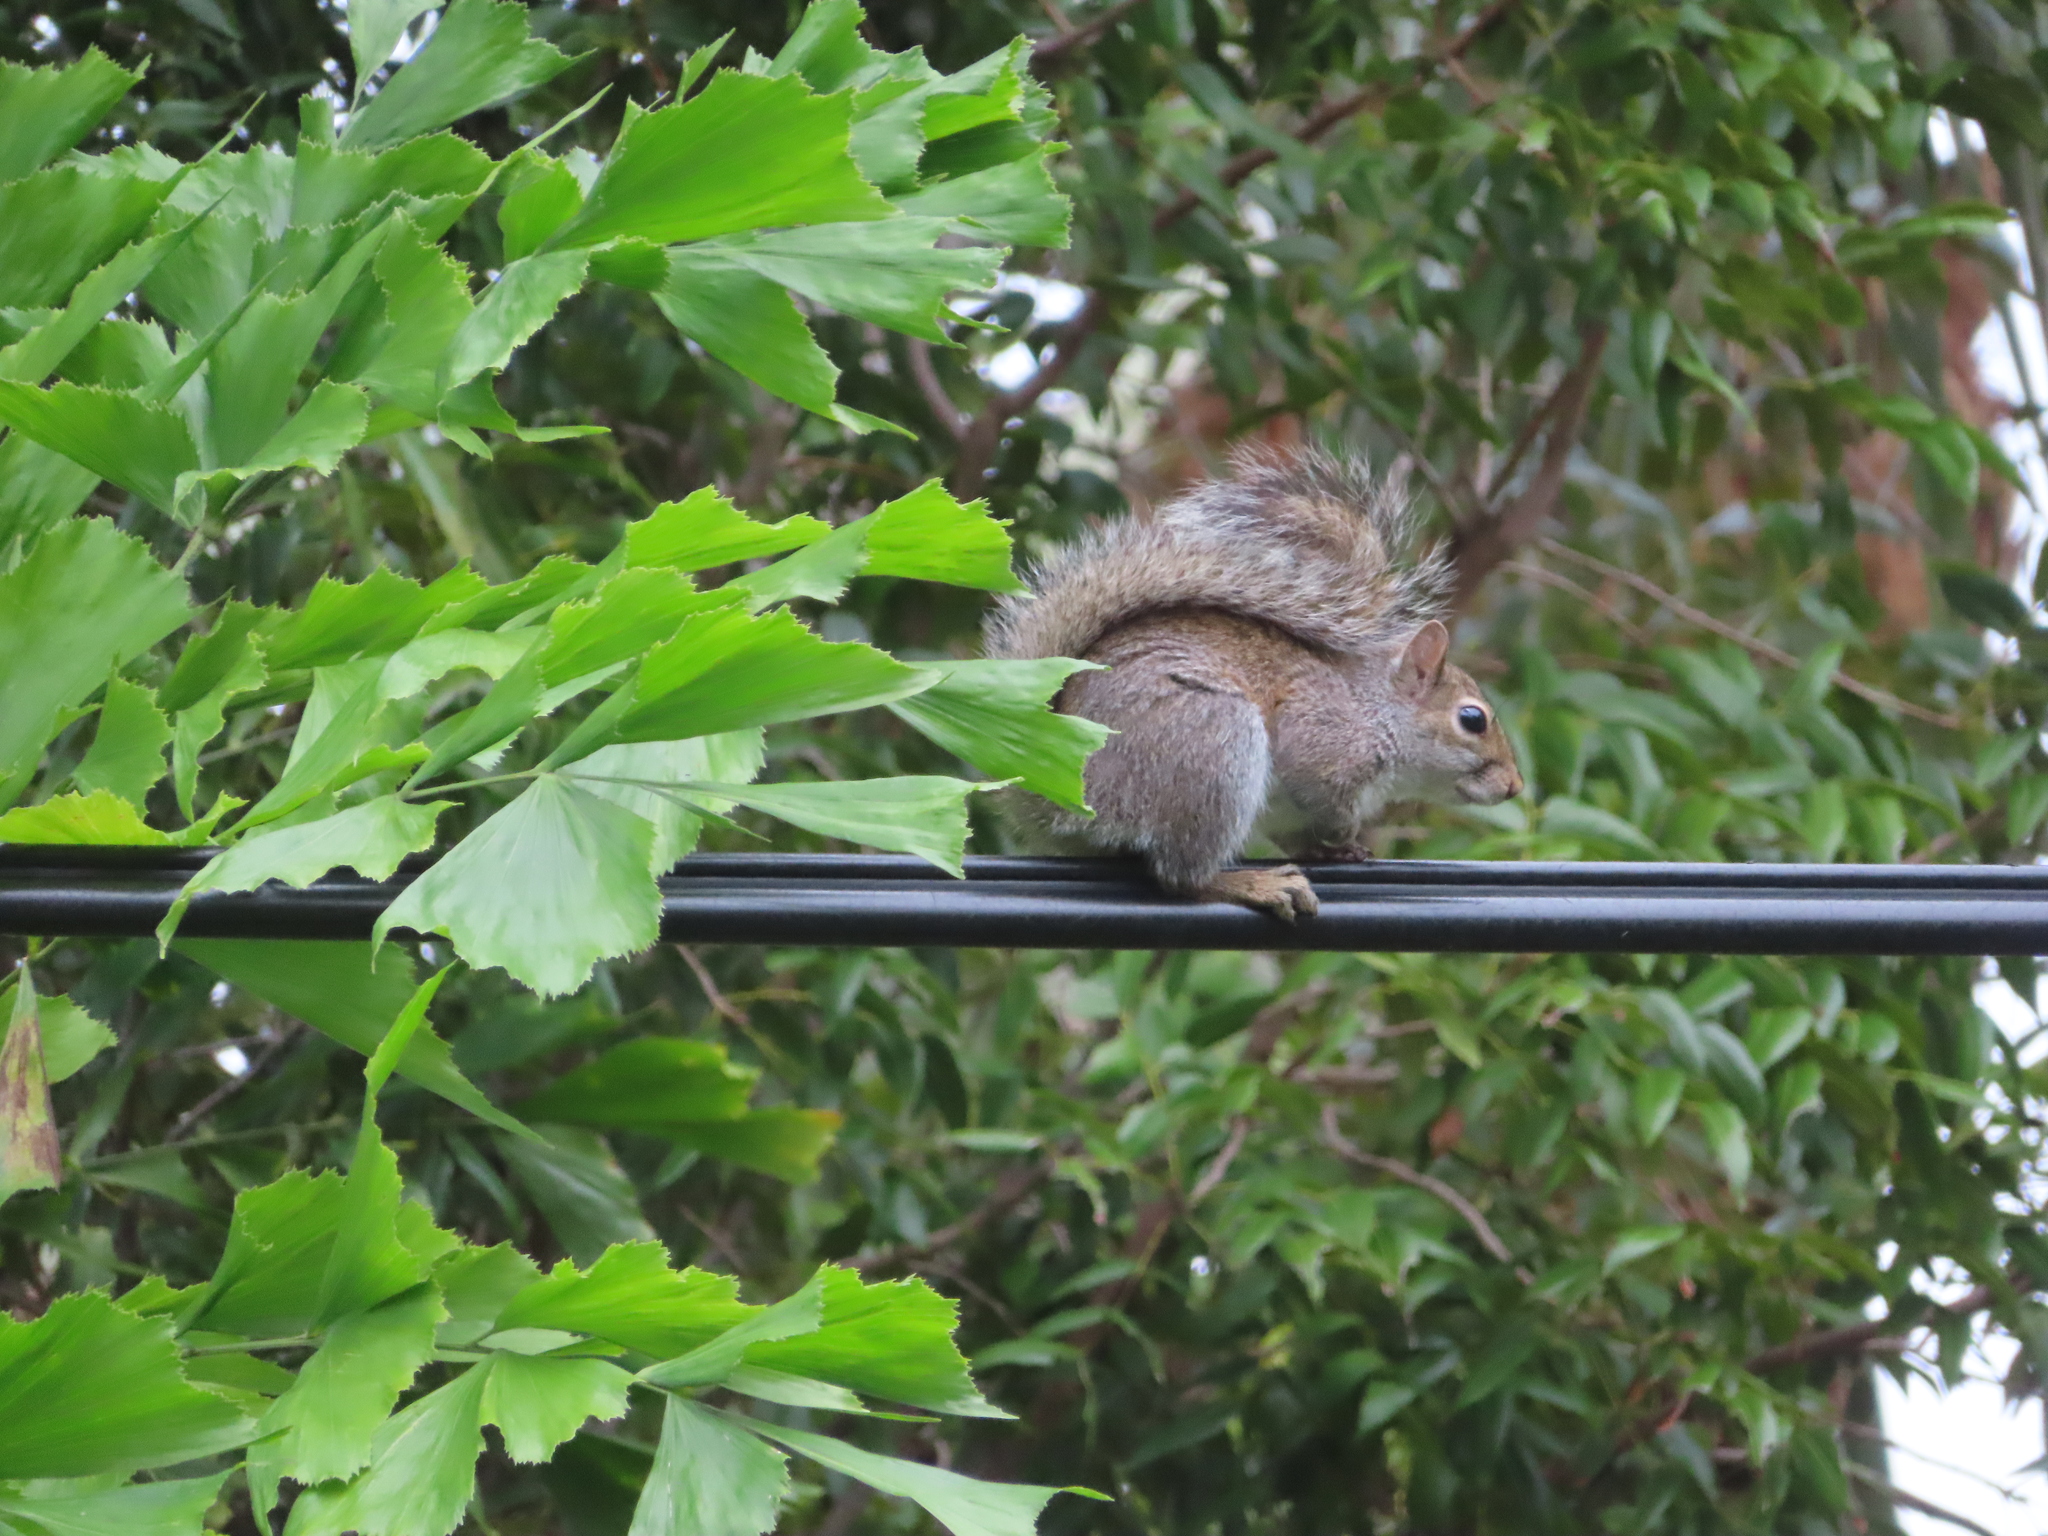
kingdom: Animalia
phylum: Chordata
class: Mammalia
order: Rodentia
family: Sciuridae
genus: Sciurus
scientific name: Sciurus carolinensis
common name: Eastern gray squirrel
